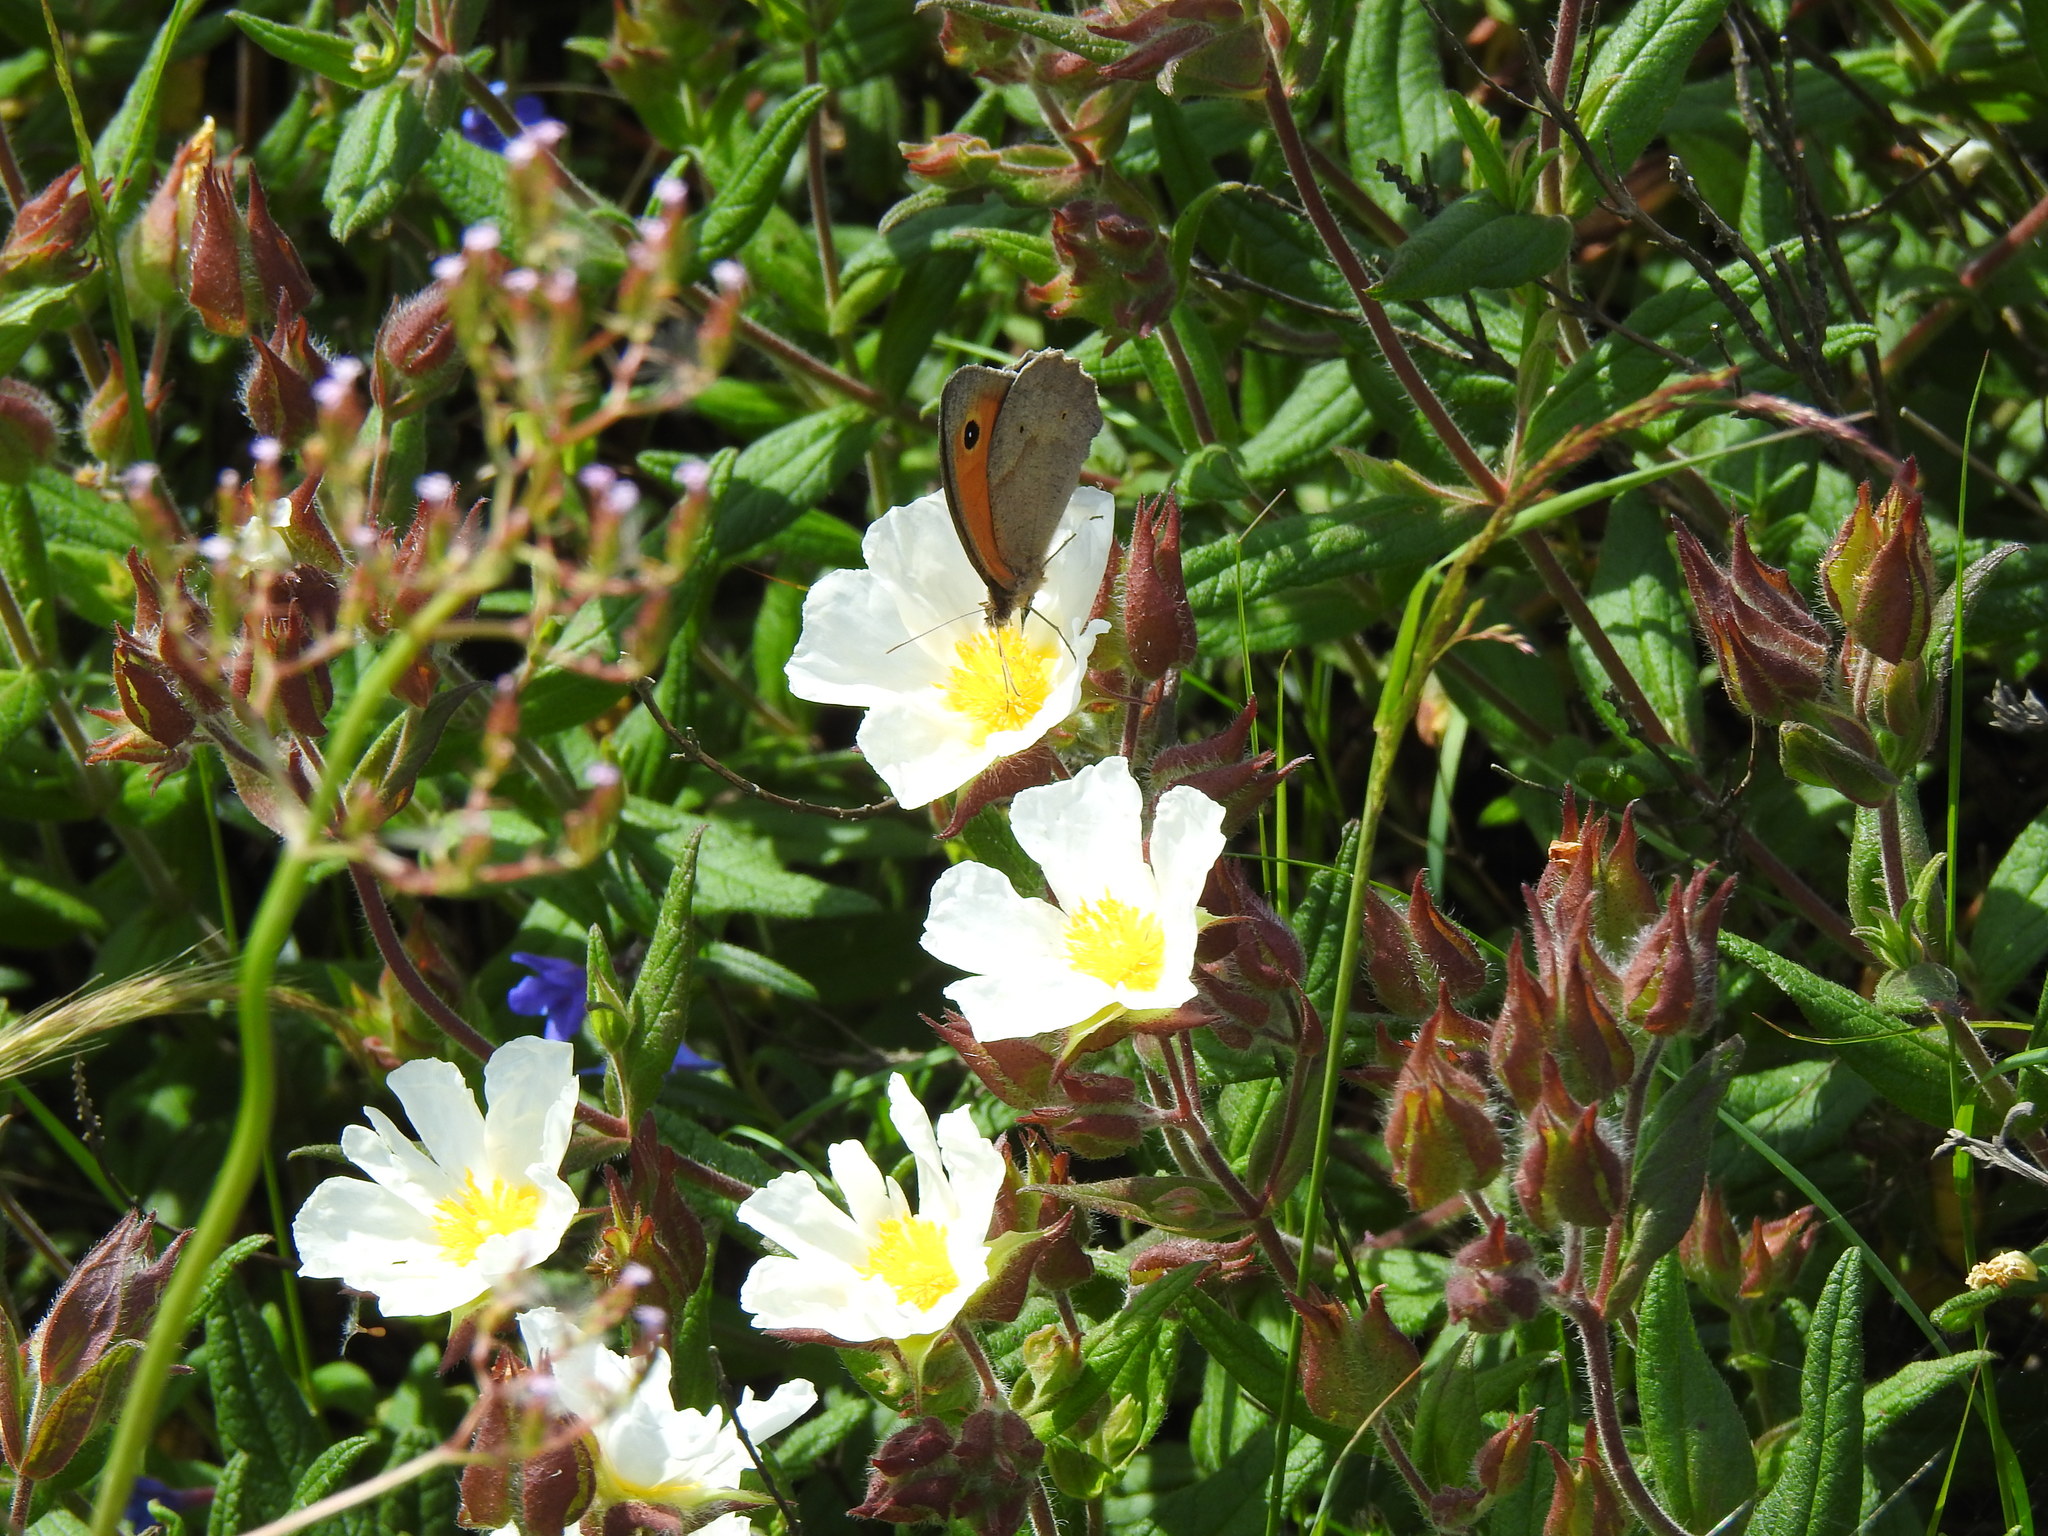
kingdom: Animalia
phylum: Arthropoda
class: Insecta
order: Lepidoptera
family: Nymphalidae
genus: Maniola
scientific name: Maniola jurtina
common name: Meadow brown
